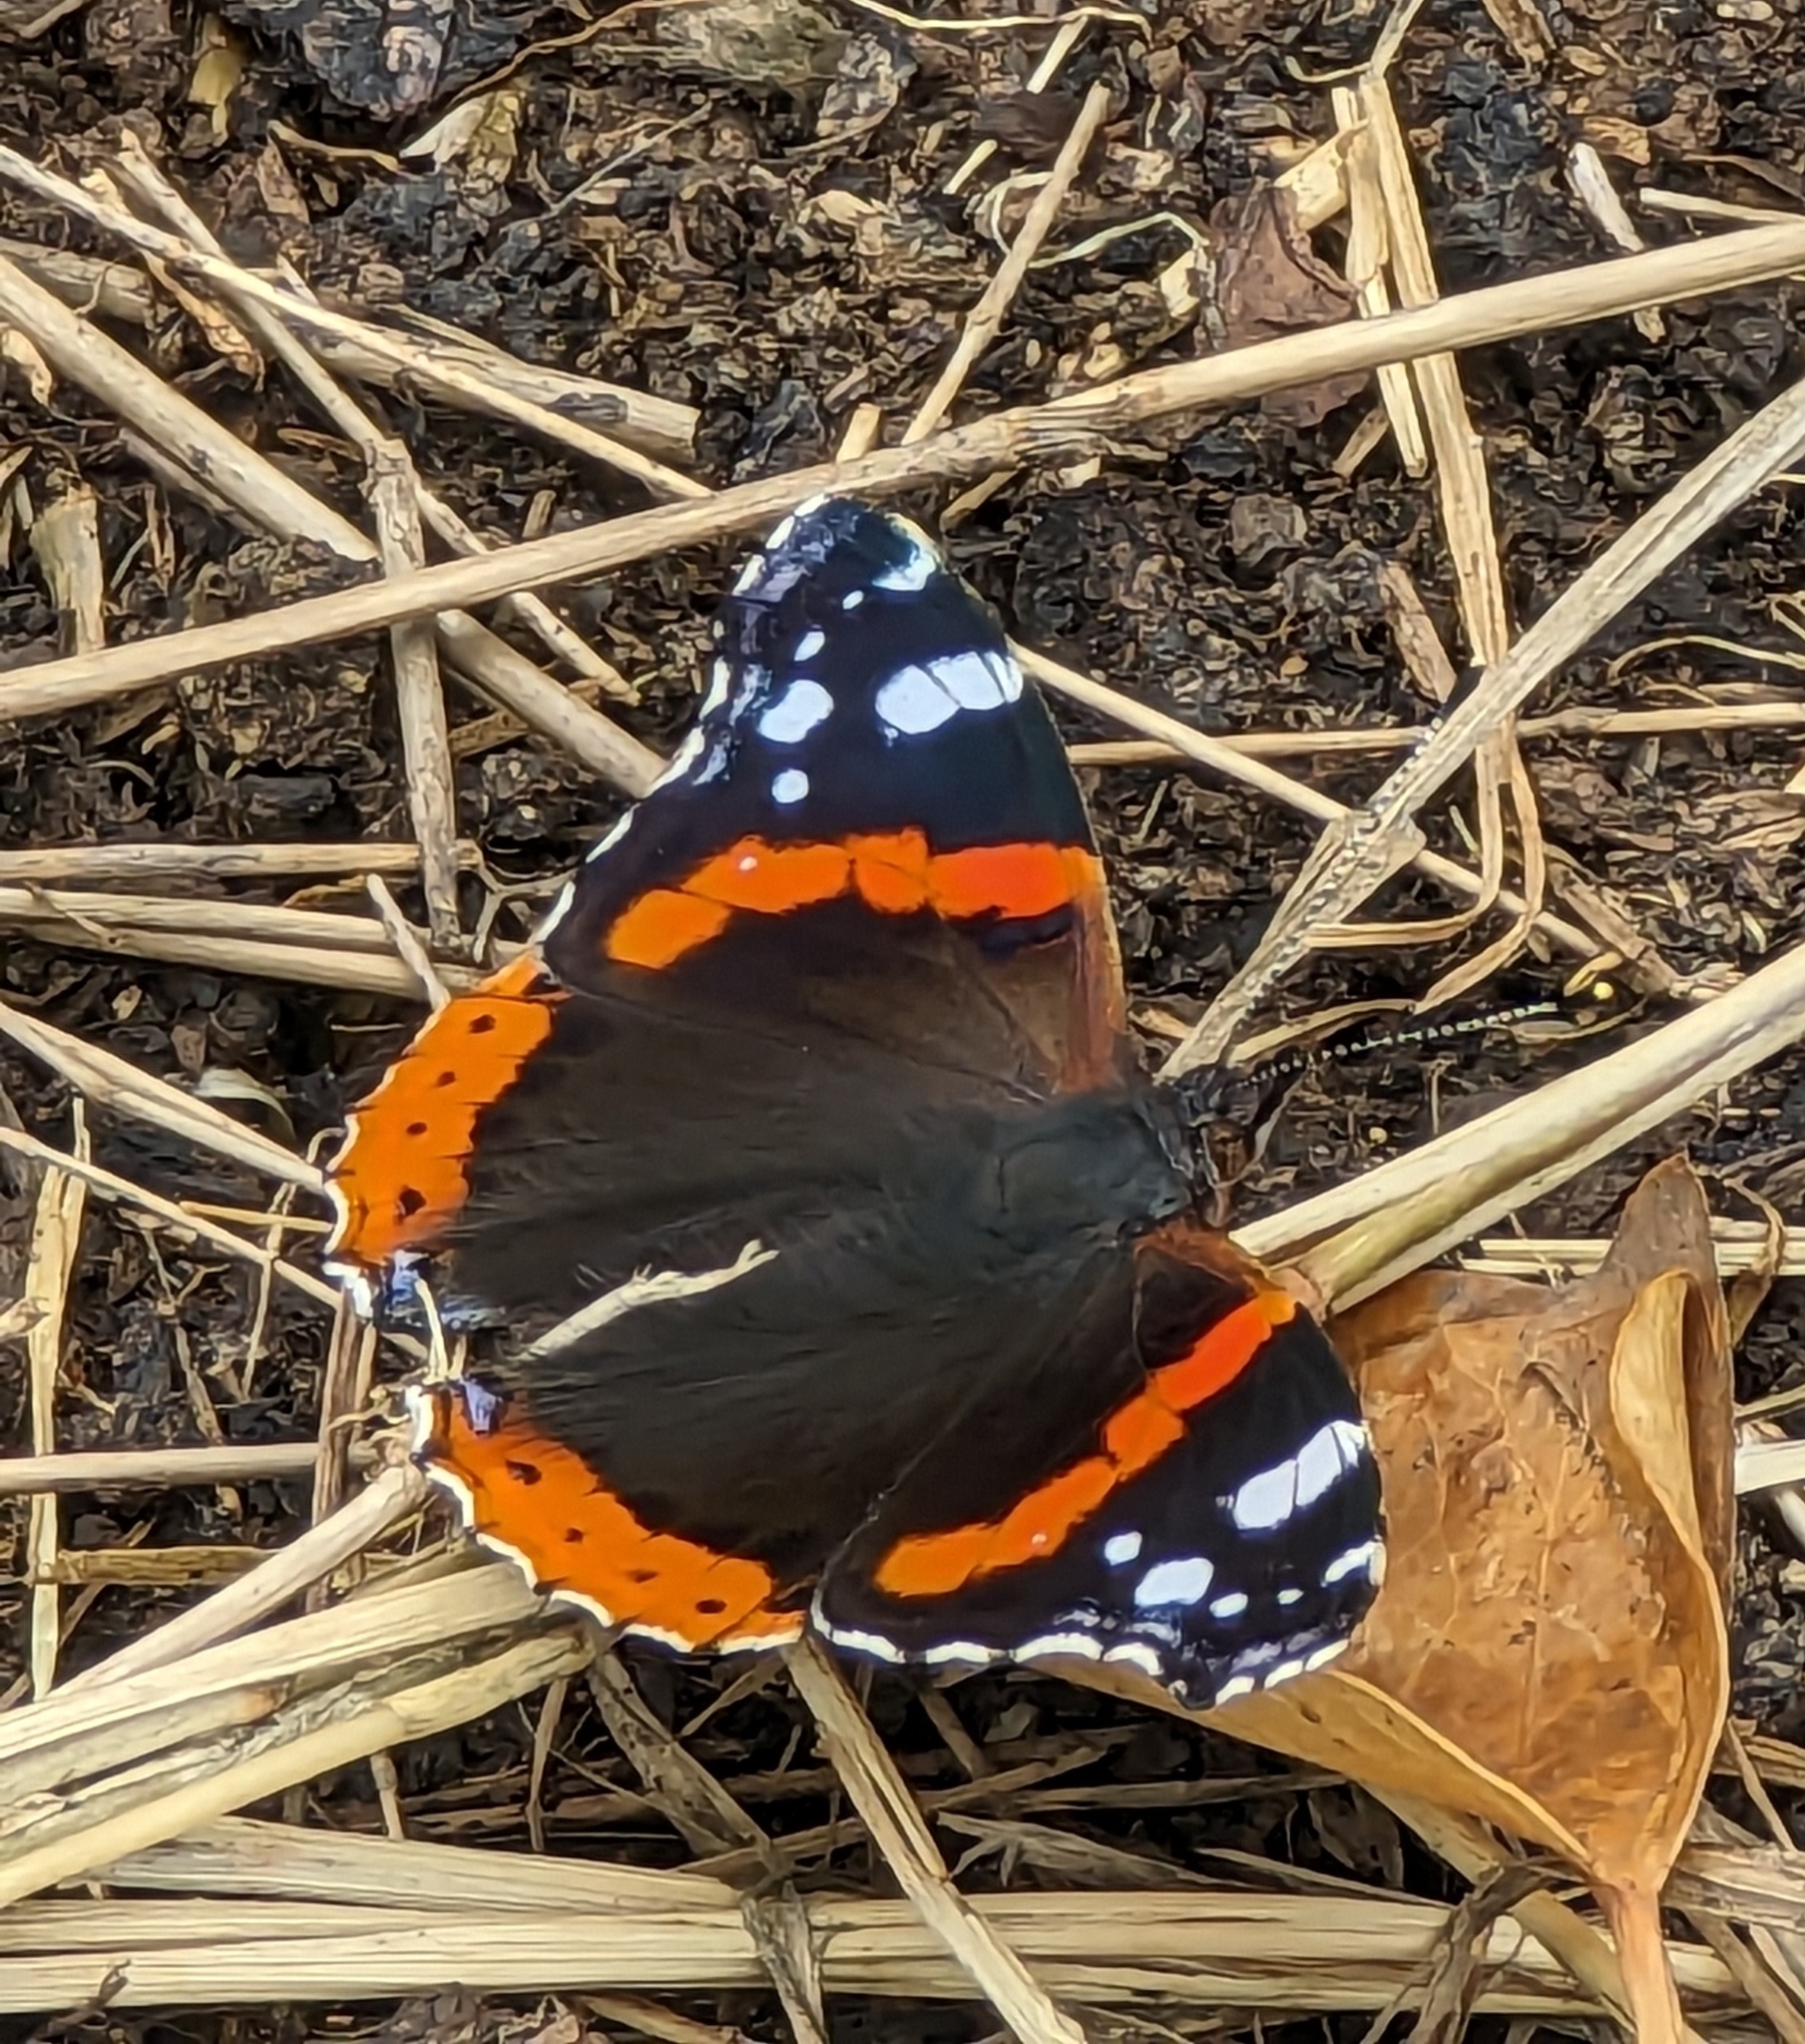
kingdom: Animalia
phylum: Arthropoda
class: Insecta
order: Lepidoptera
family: Nymphalidae
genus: Vanessa
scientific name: Vanessa atalanta
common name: Red admiral
